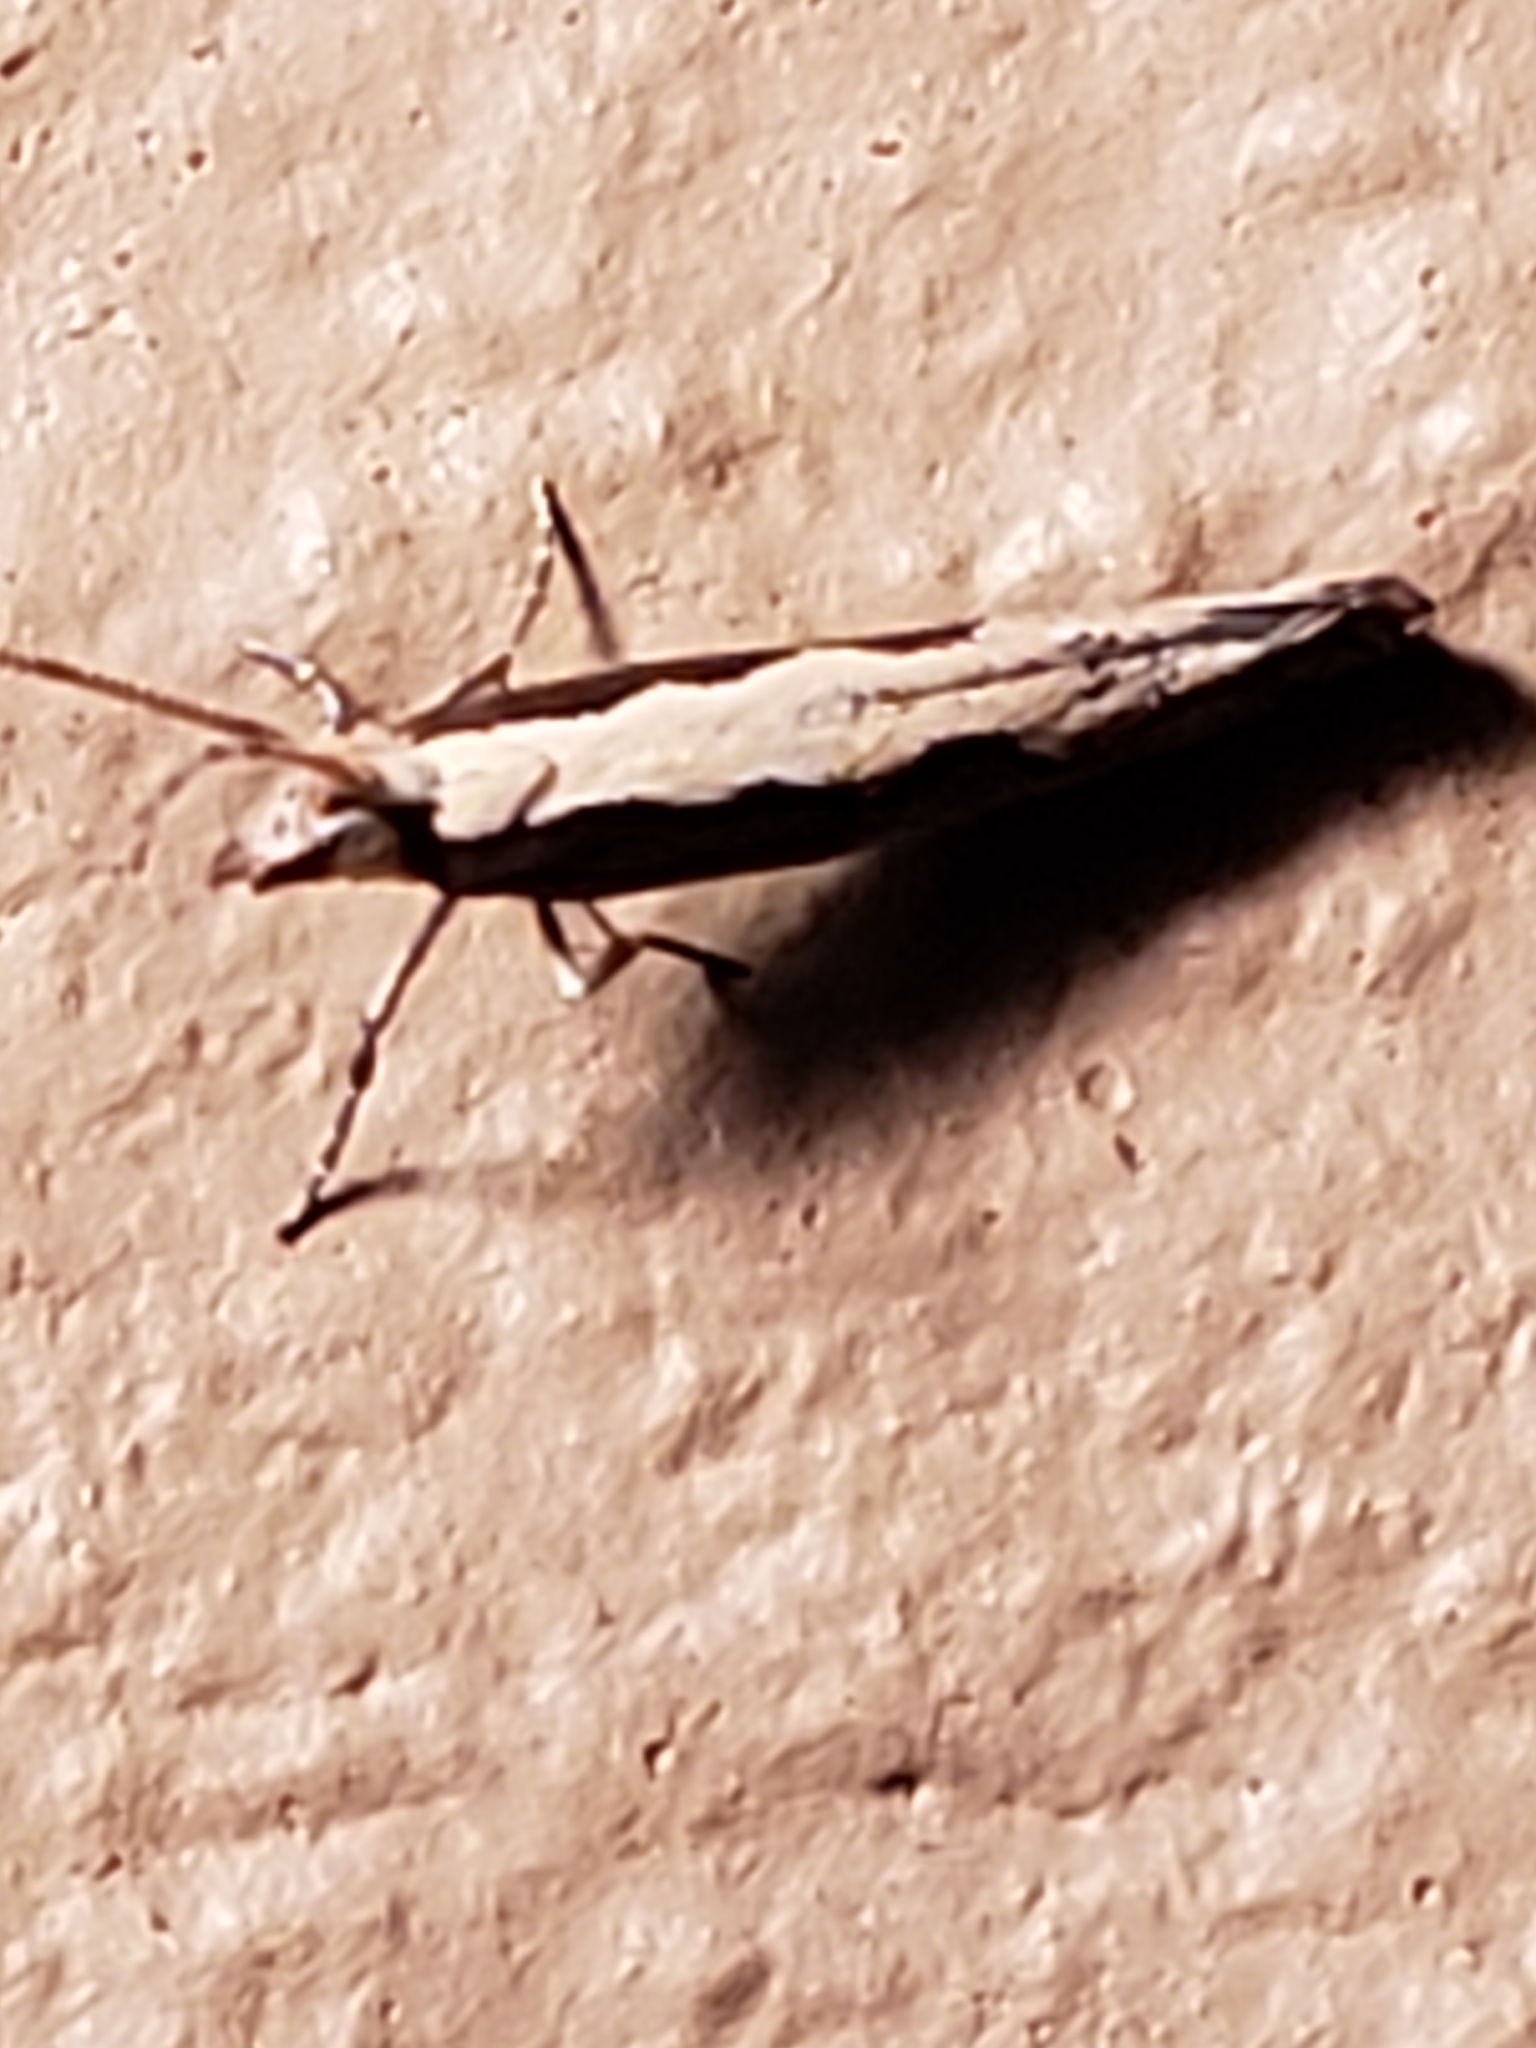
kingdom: Animalia
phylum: Arthropoda
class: Insecta
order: Lepidoptera
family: Plutellidae
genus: Plutella
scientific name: Plutella xylostella
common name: Diamond-back moth
